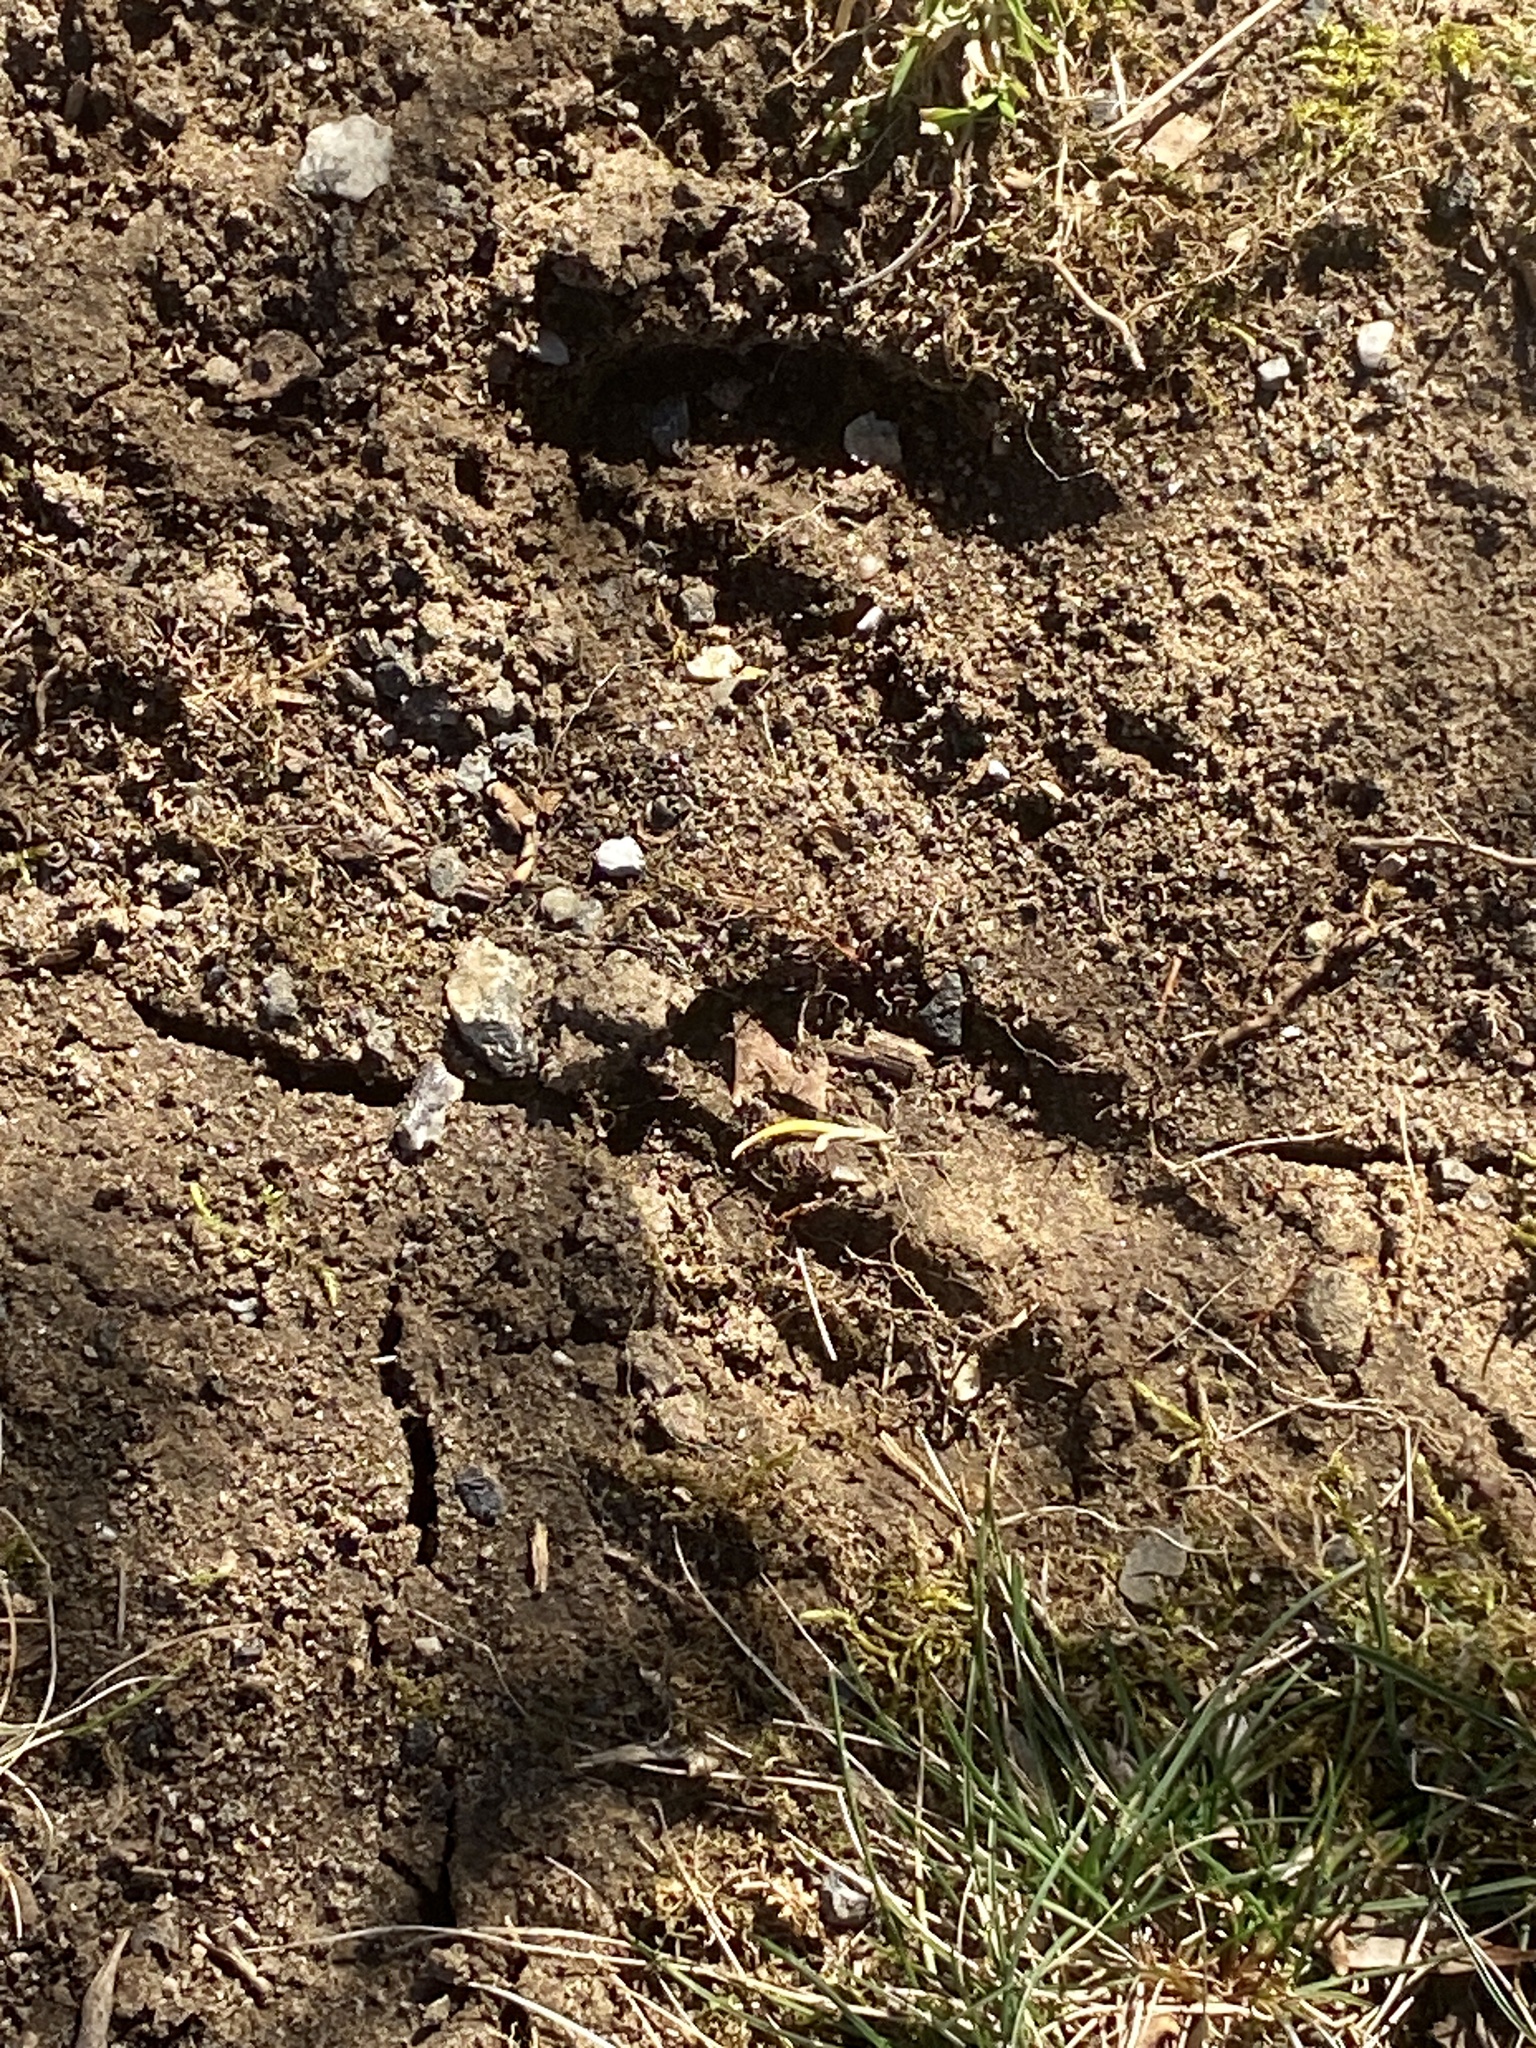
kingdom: Animalia
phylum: Chordata
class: Mammalia
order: Artiodactyla
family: Cervidae
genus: Odocoileus
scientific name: Odocoileus virginianus
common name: White-tailed deer
